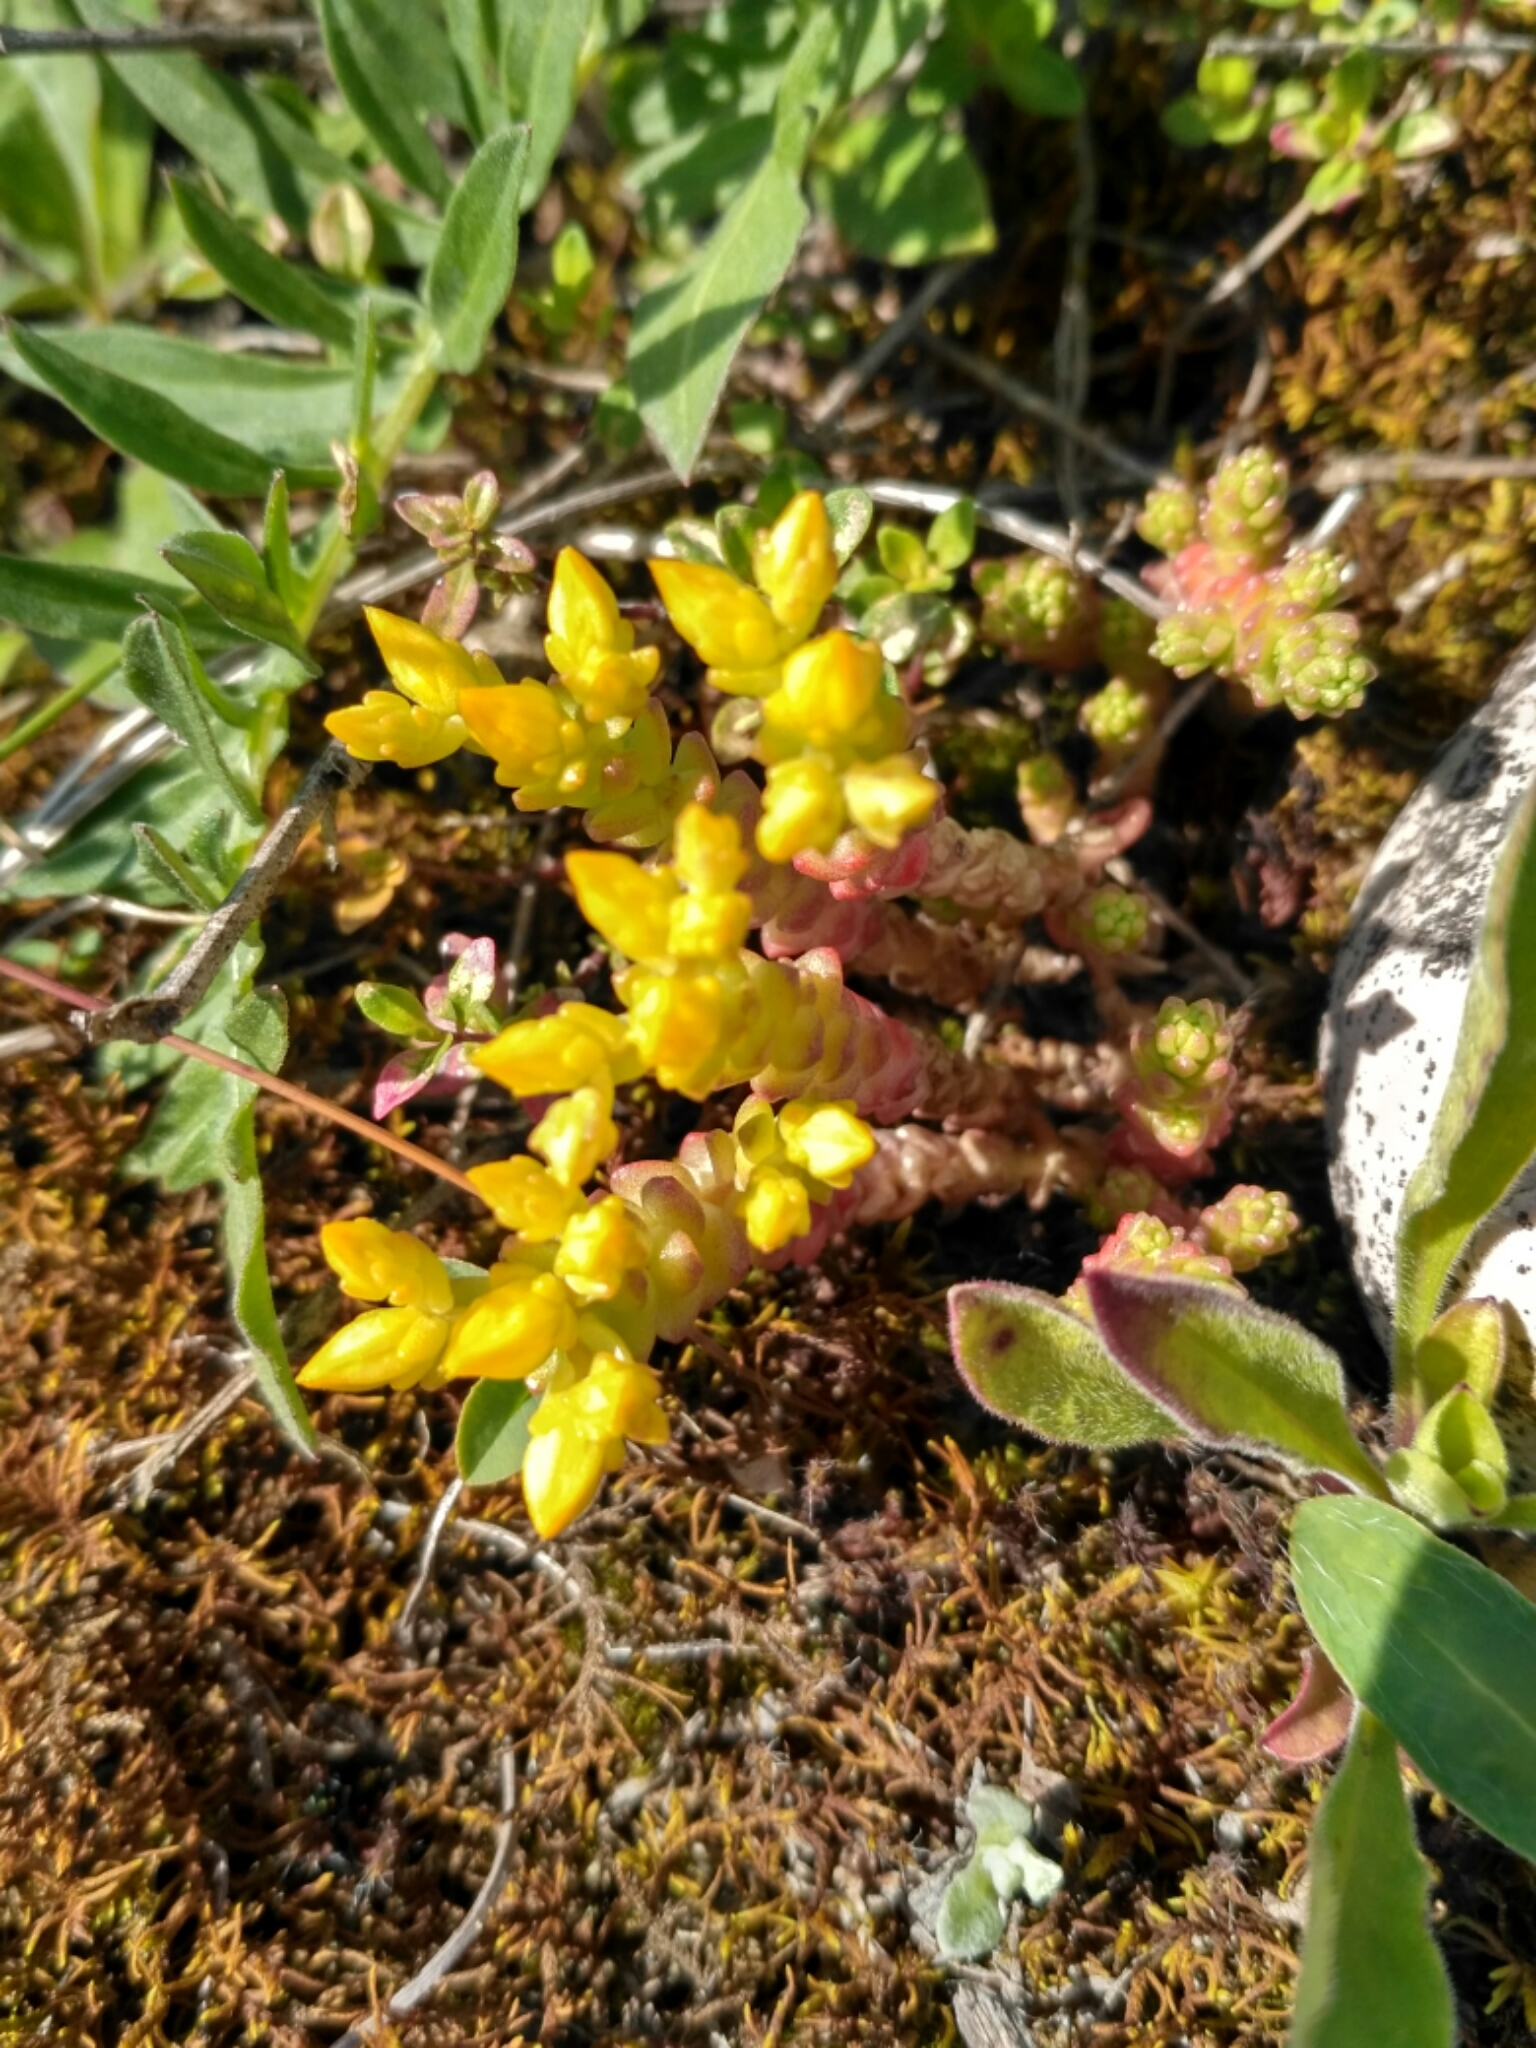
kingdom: Plantae
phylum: Tracheophyta
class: Magnoliopsida
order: Saxifragales
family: Crassulaceae
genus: Sedum
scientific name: Sedum acre
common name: Biting stonecrop
